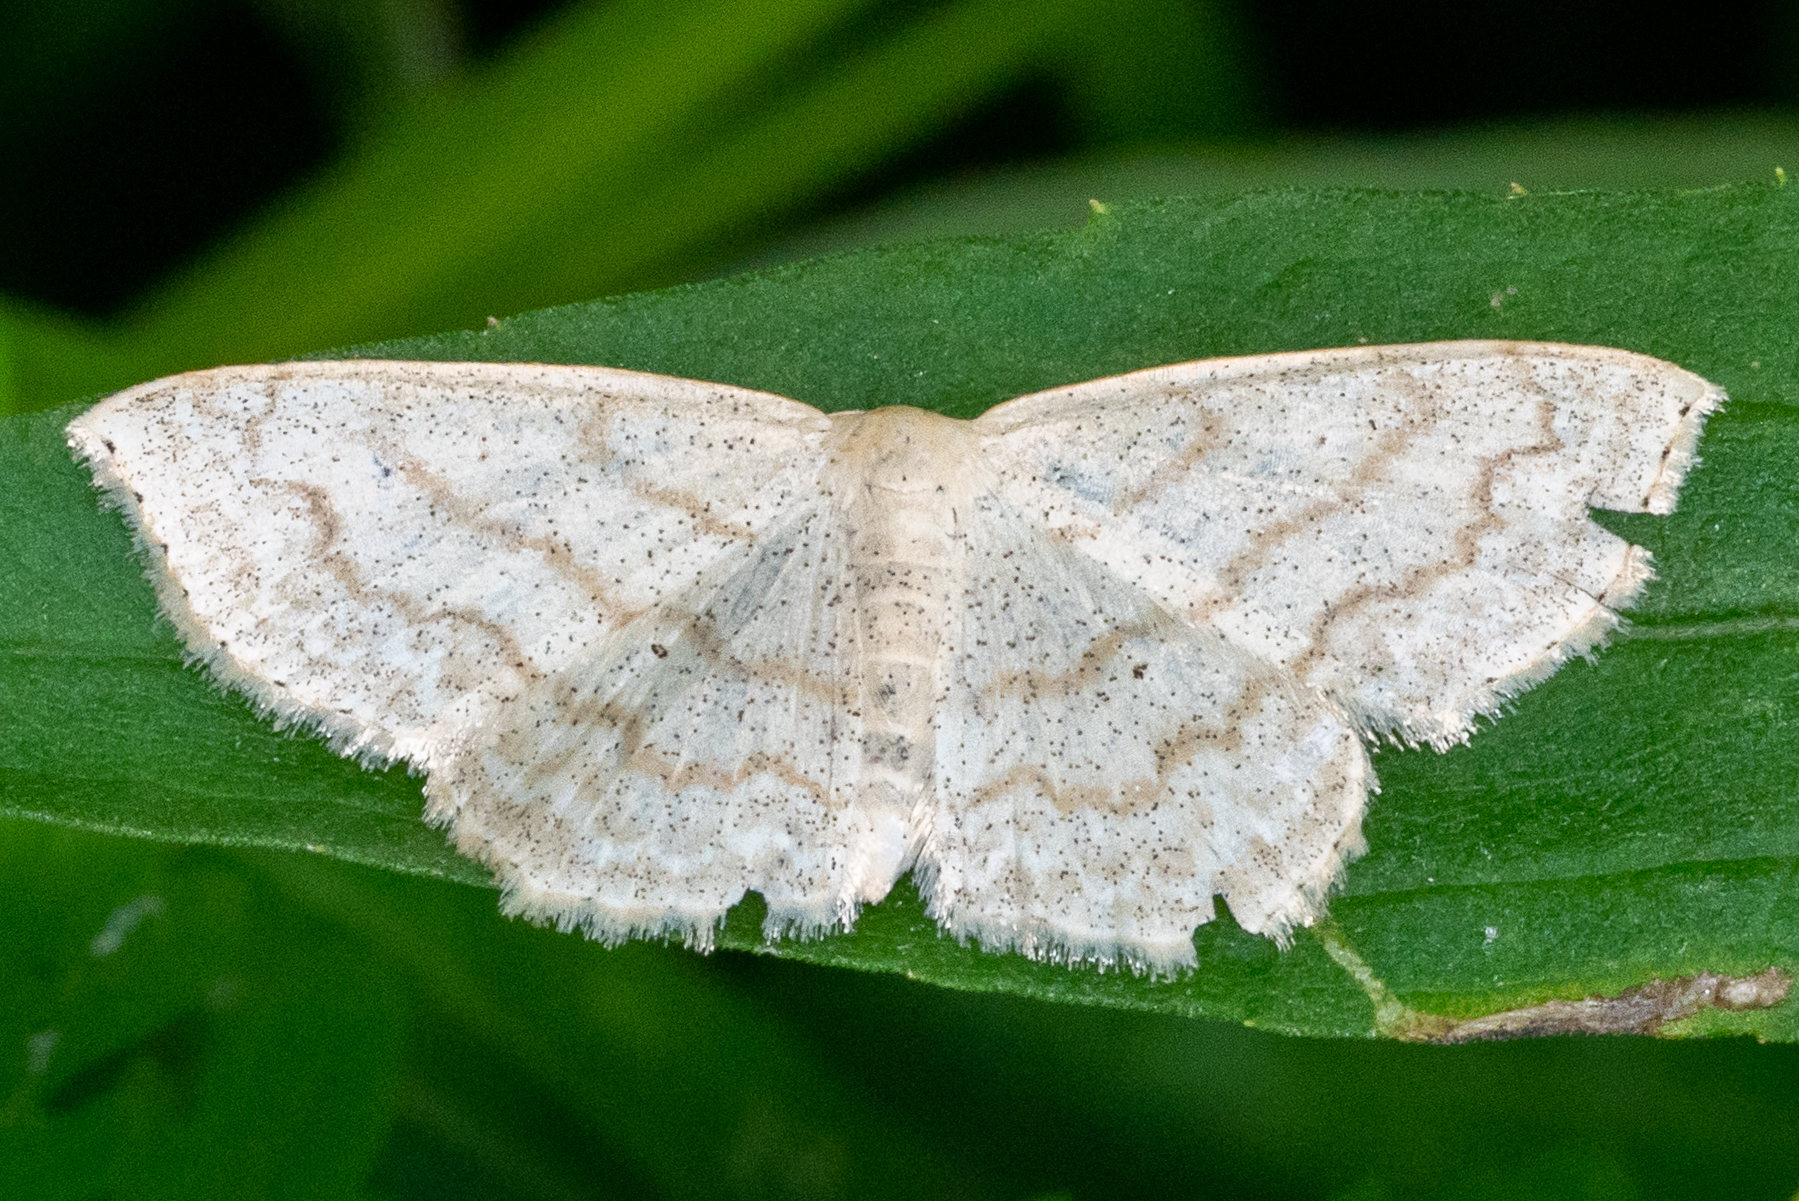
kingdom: Animalia
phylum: Arthropoda
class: Insecta
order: Lepidoptera
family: Geometridae
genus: Scopula
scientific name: Scopula limboundata
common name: Large lace border
